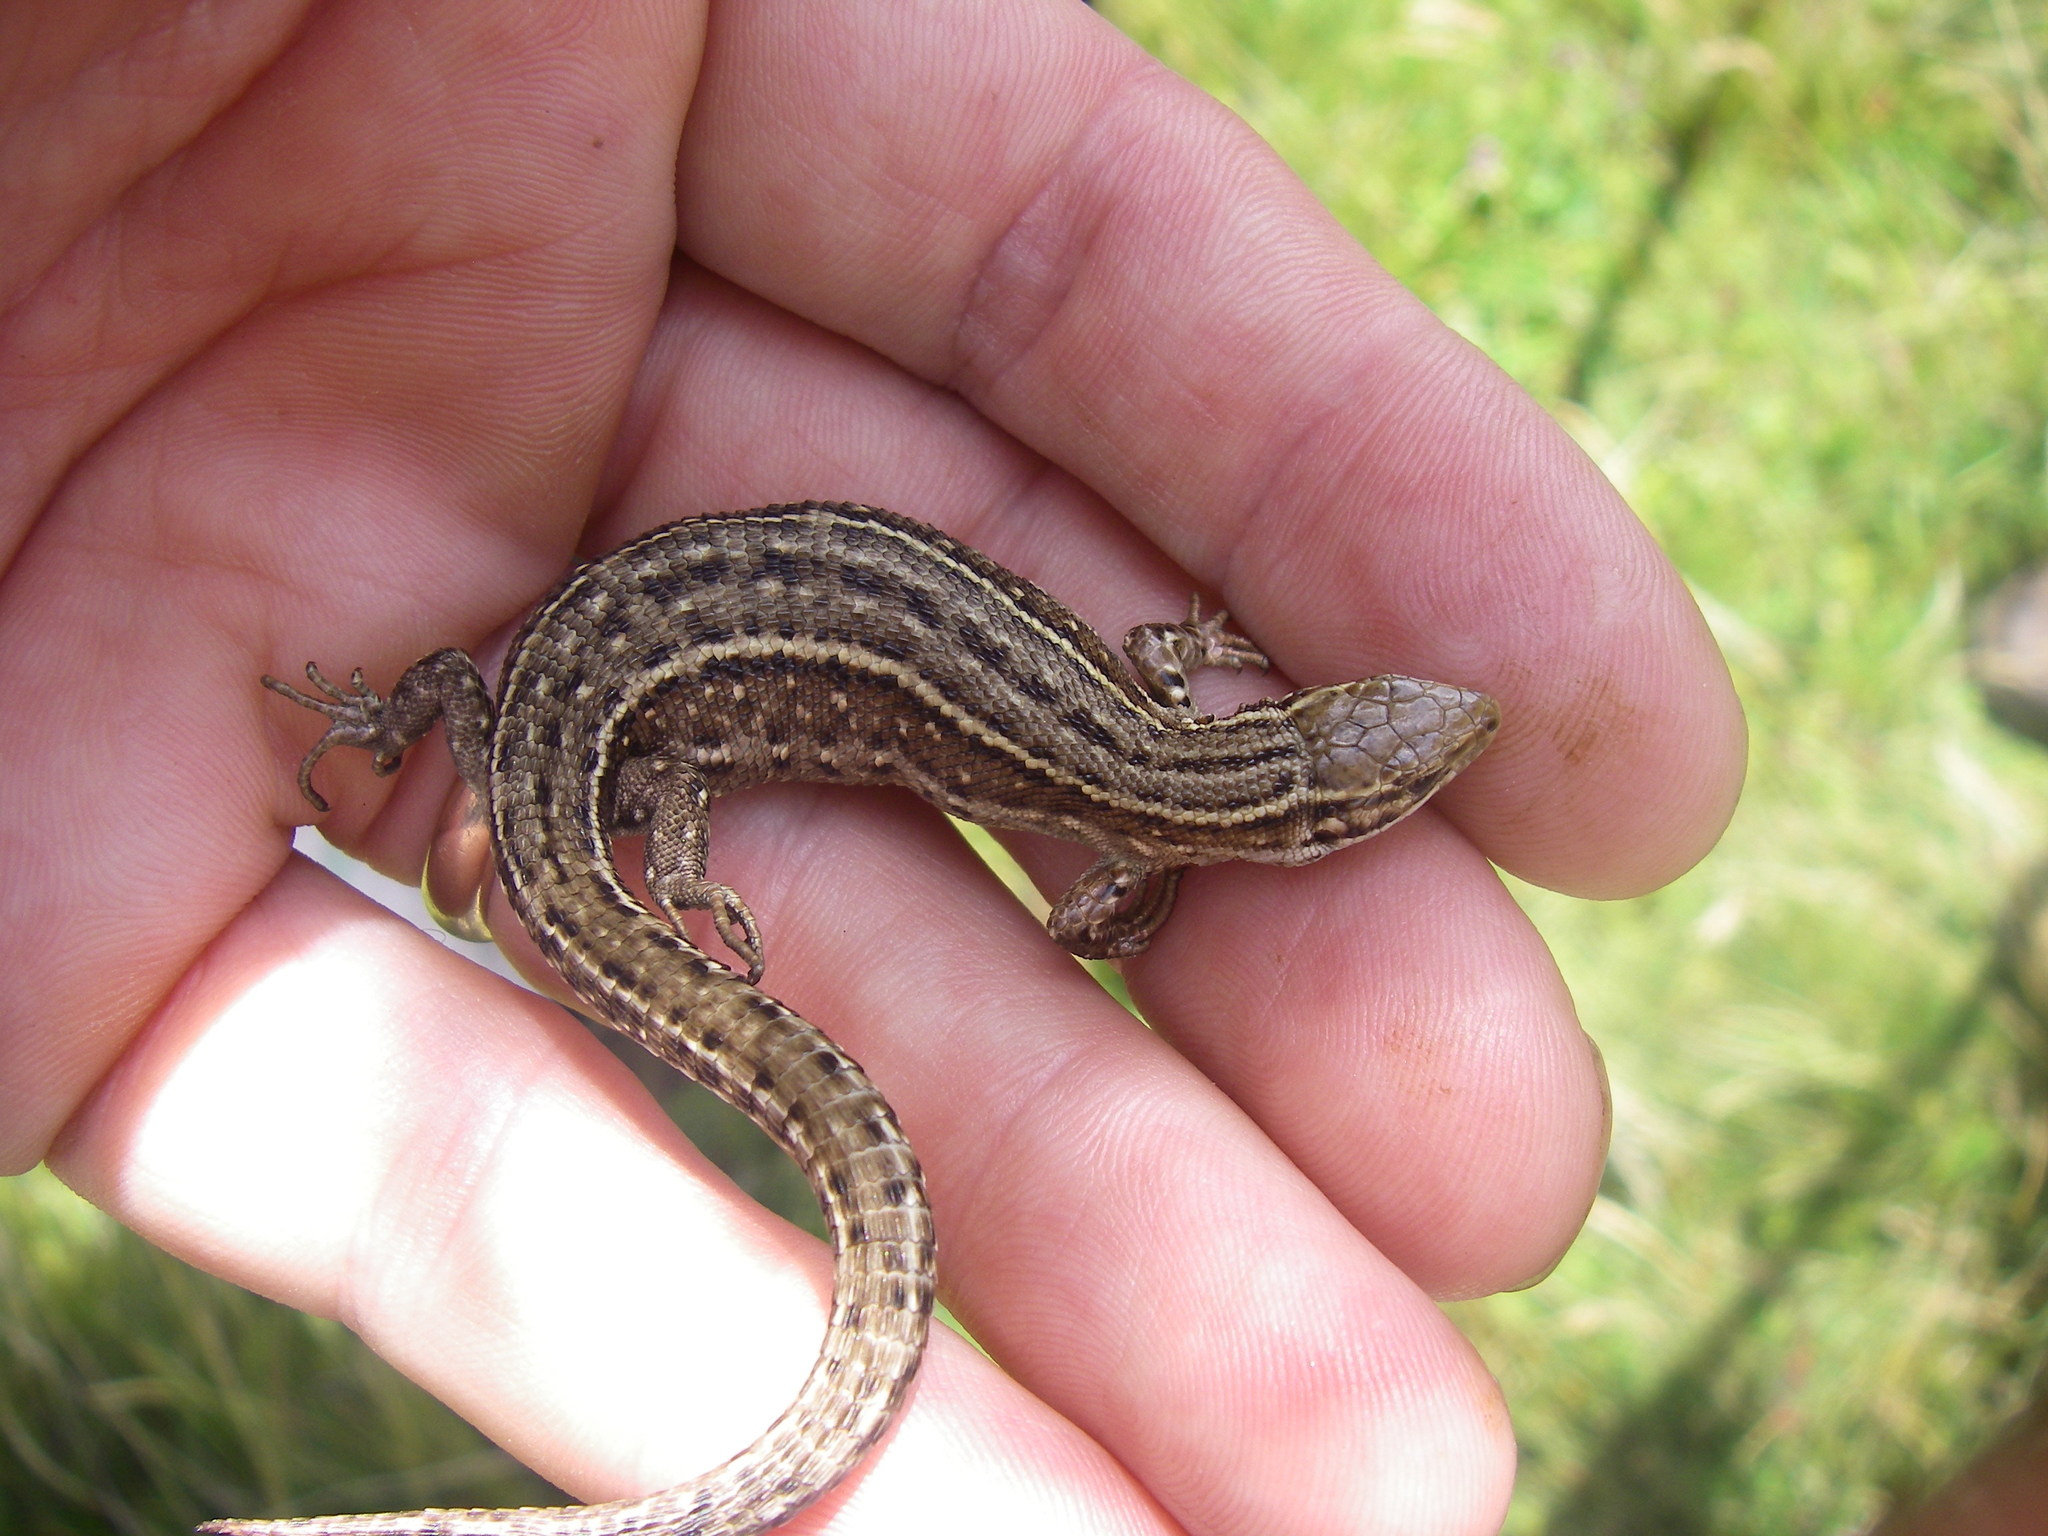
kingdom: Animalia
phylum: Chordata
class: Squamata
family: Lacertidae
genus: Zootoca
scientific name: Zootoca vivipara
